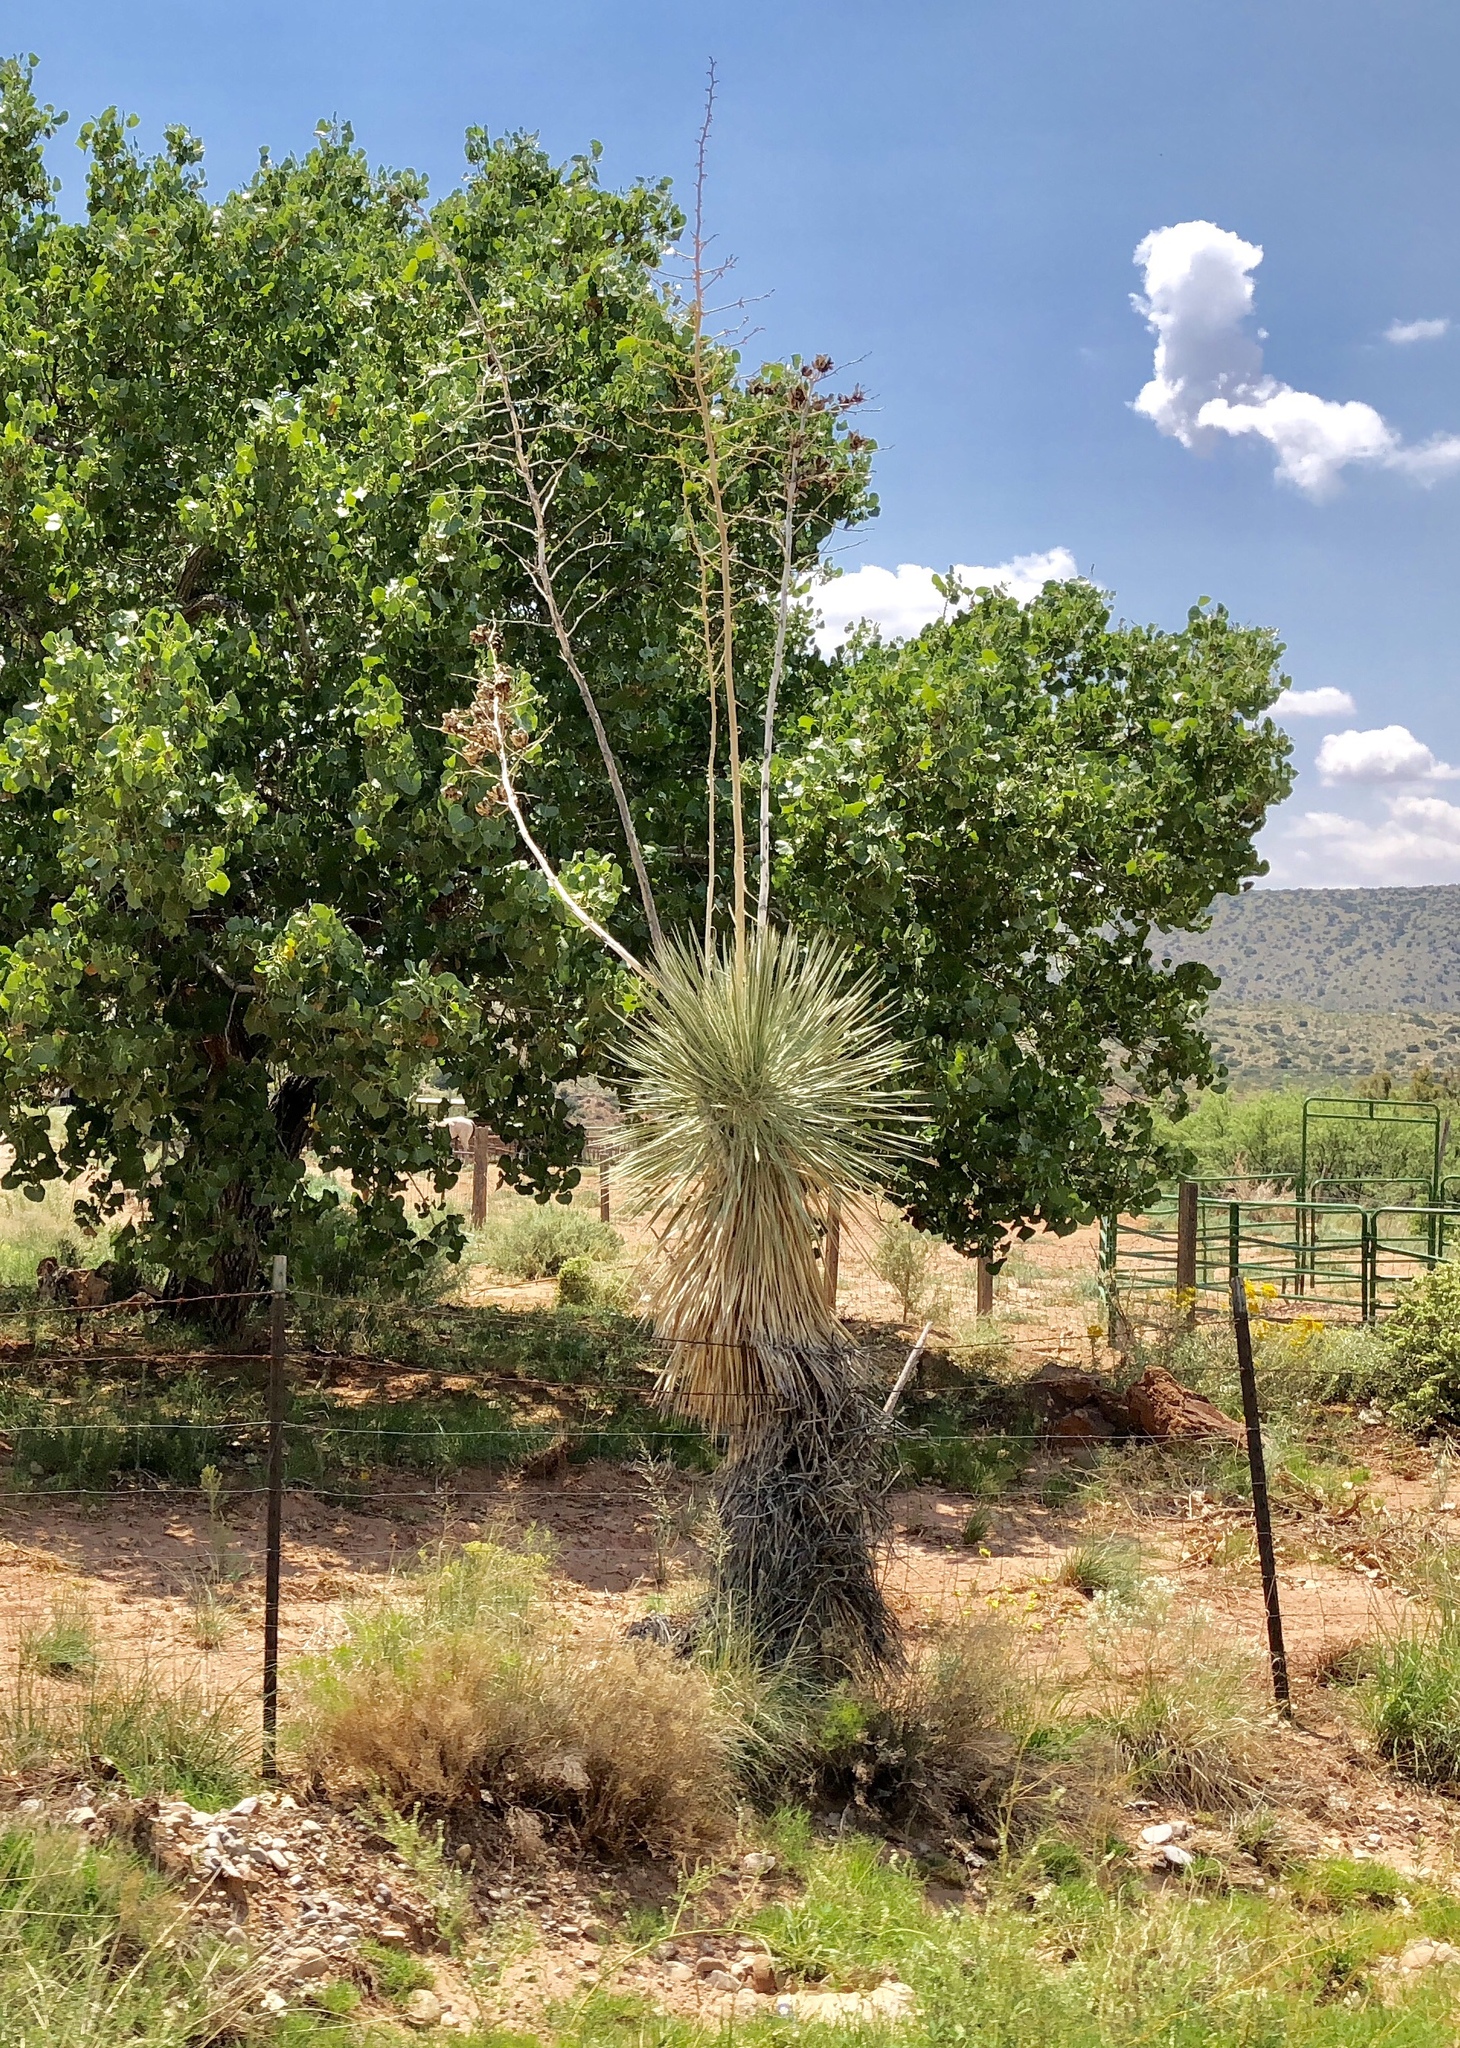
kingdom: Plantae
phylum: Tracheophyta
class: Liliopsida
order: Asparagales
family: Asparagaceae
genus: Yucca
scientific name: Yucca elata
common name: Palmella
